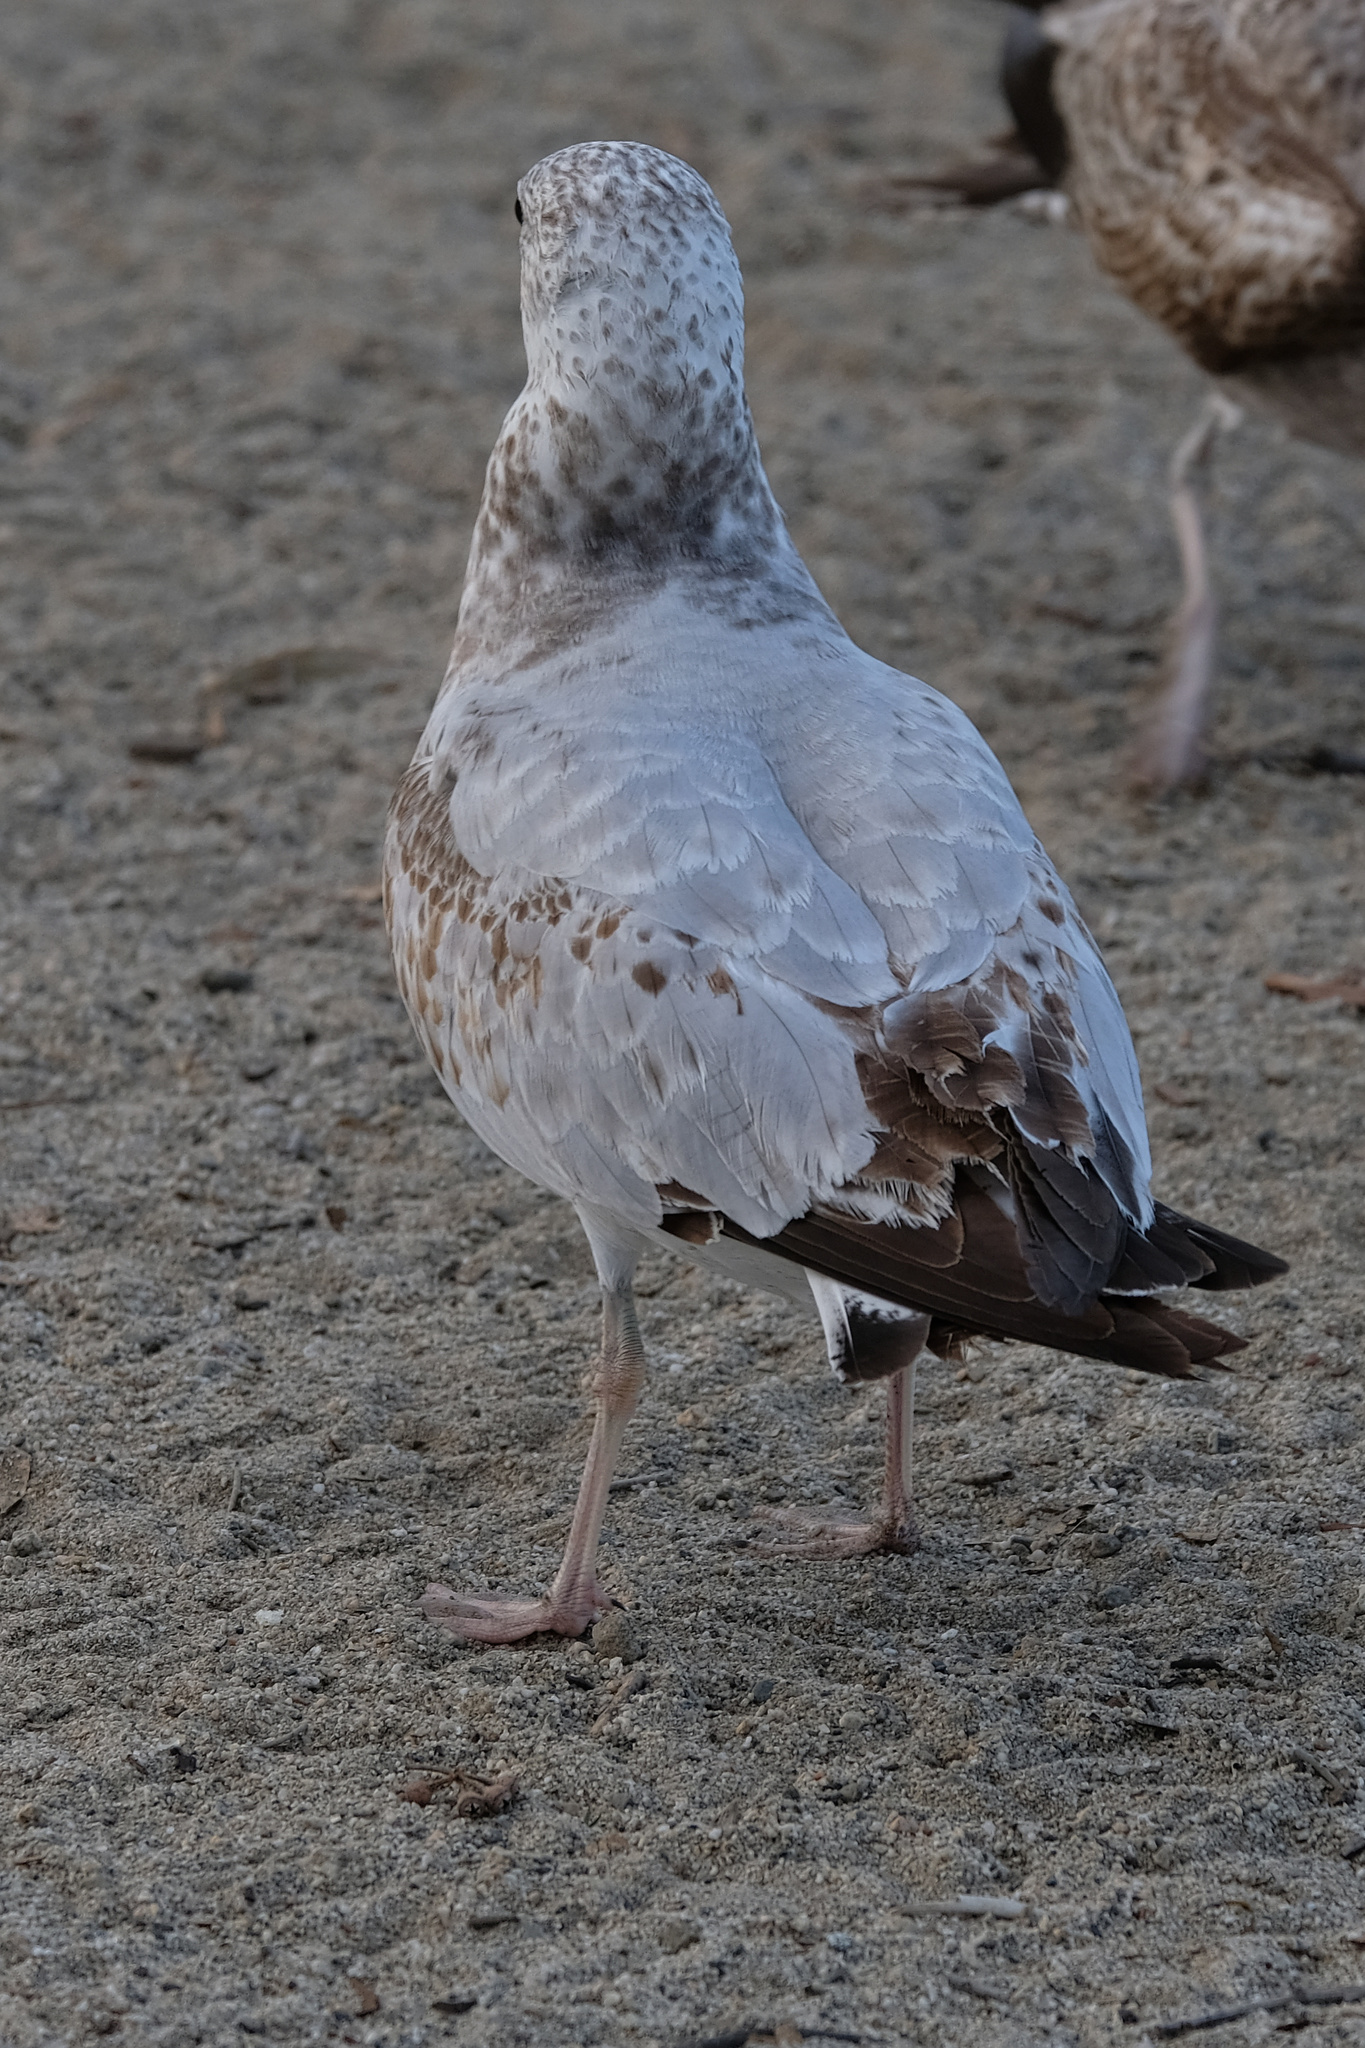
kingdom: Animalia
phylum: Chordata
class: Aves
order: Charadriiformes
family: Laridae
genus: Larus
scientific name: Larus delawarensis
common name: Ring-billed gull
